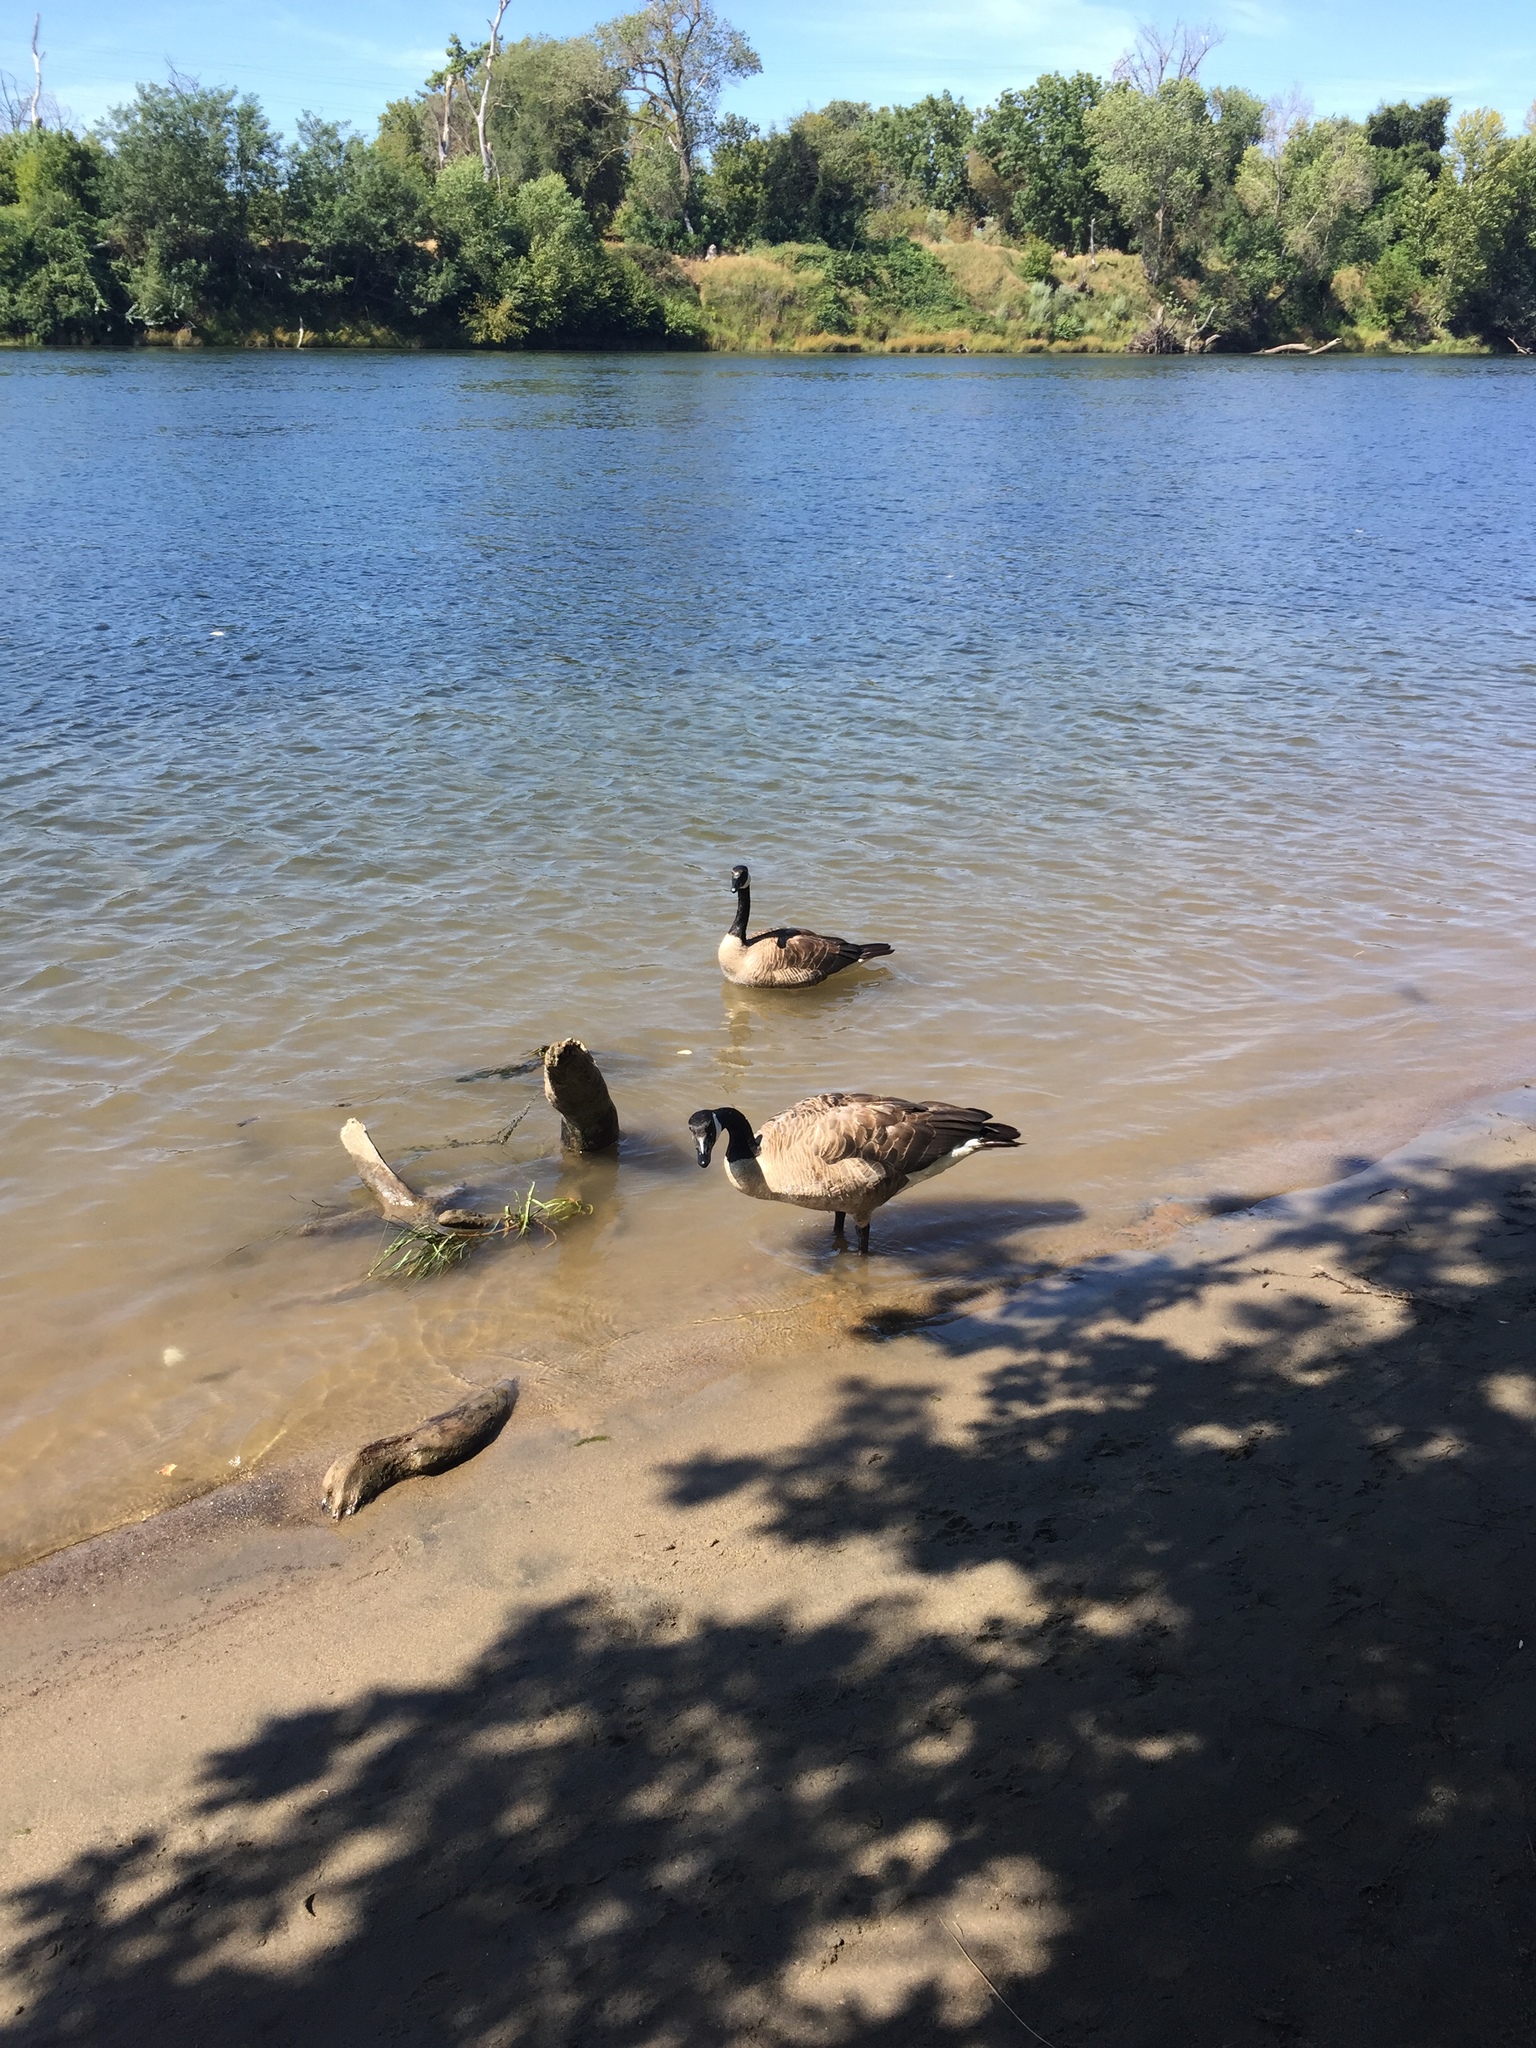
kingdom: Animalia
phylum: Chordata
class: Aves
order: Anseriformes
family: Anatidae
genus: Branta
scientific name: Branta canadensis
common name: Canada goose
